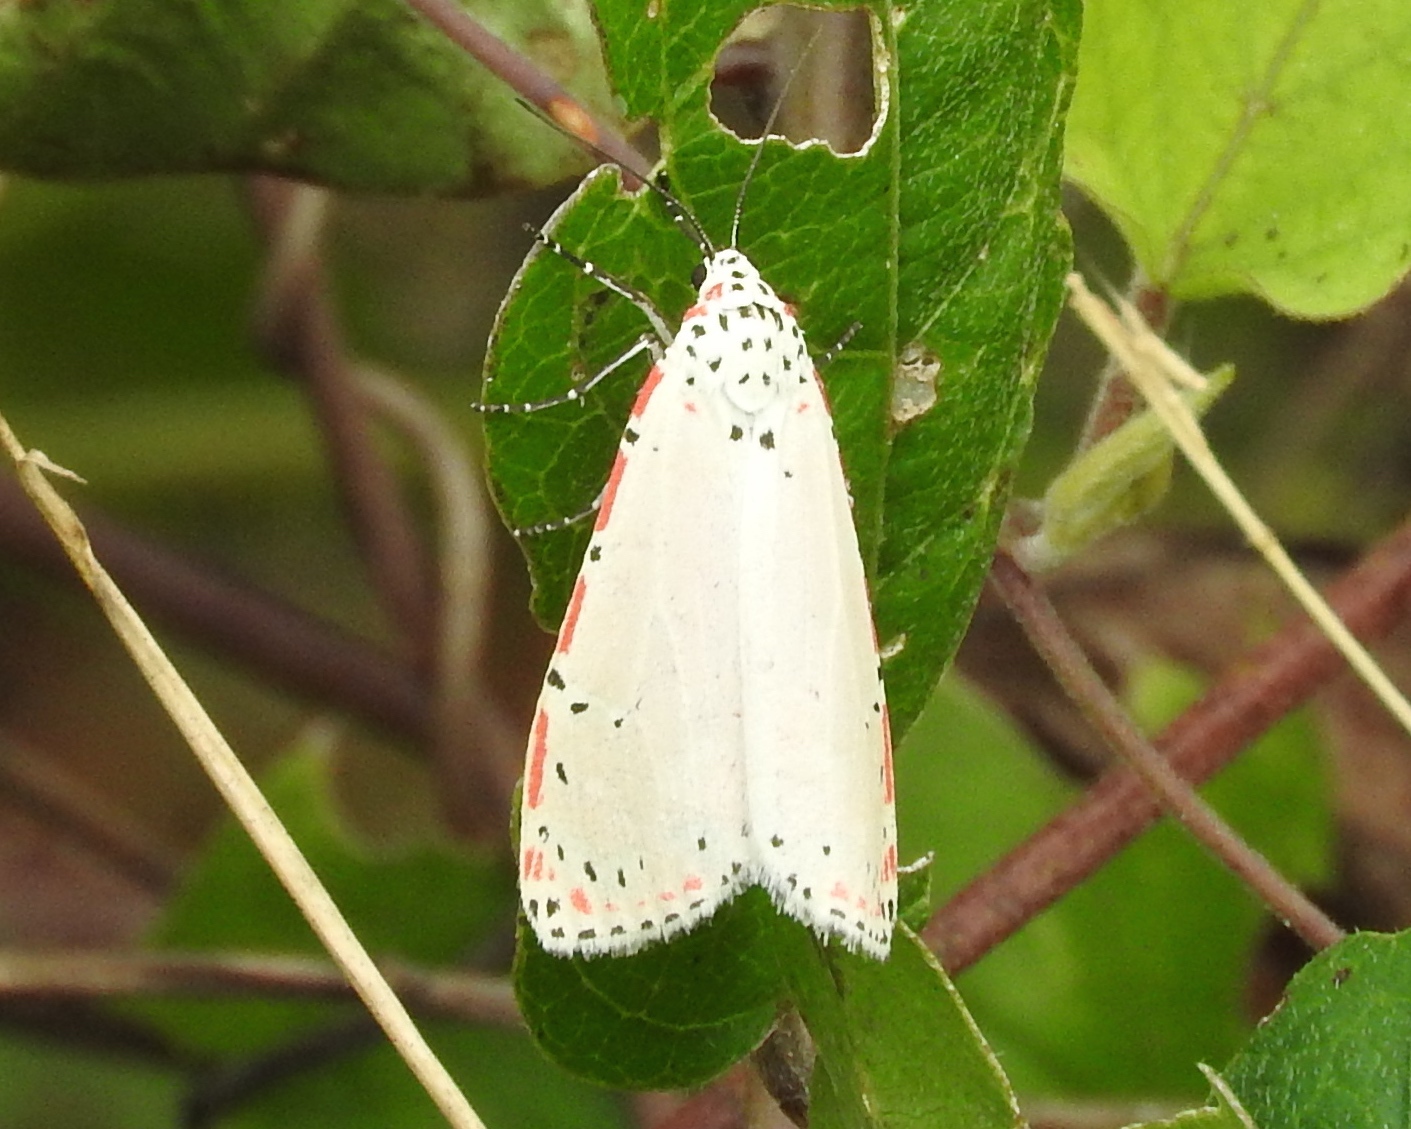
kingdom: Animalia
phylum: Arthropoda
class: Insecta
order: Lepidoptera
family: Erebidae
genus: Utetheisa
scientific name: Utetheisa ornatrix
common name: Beautiful utetheisa
